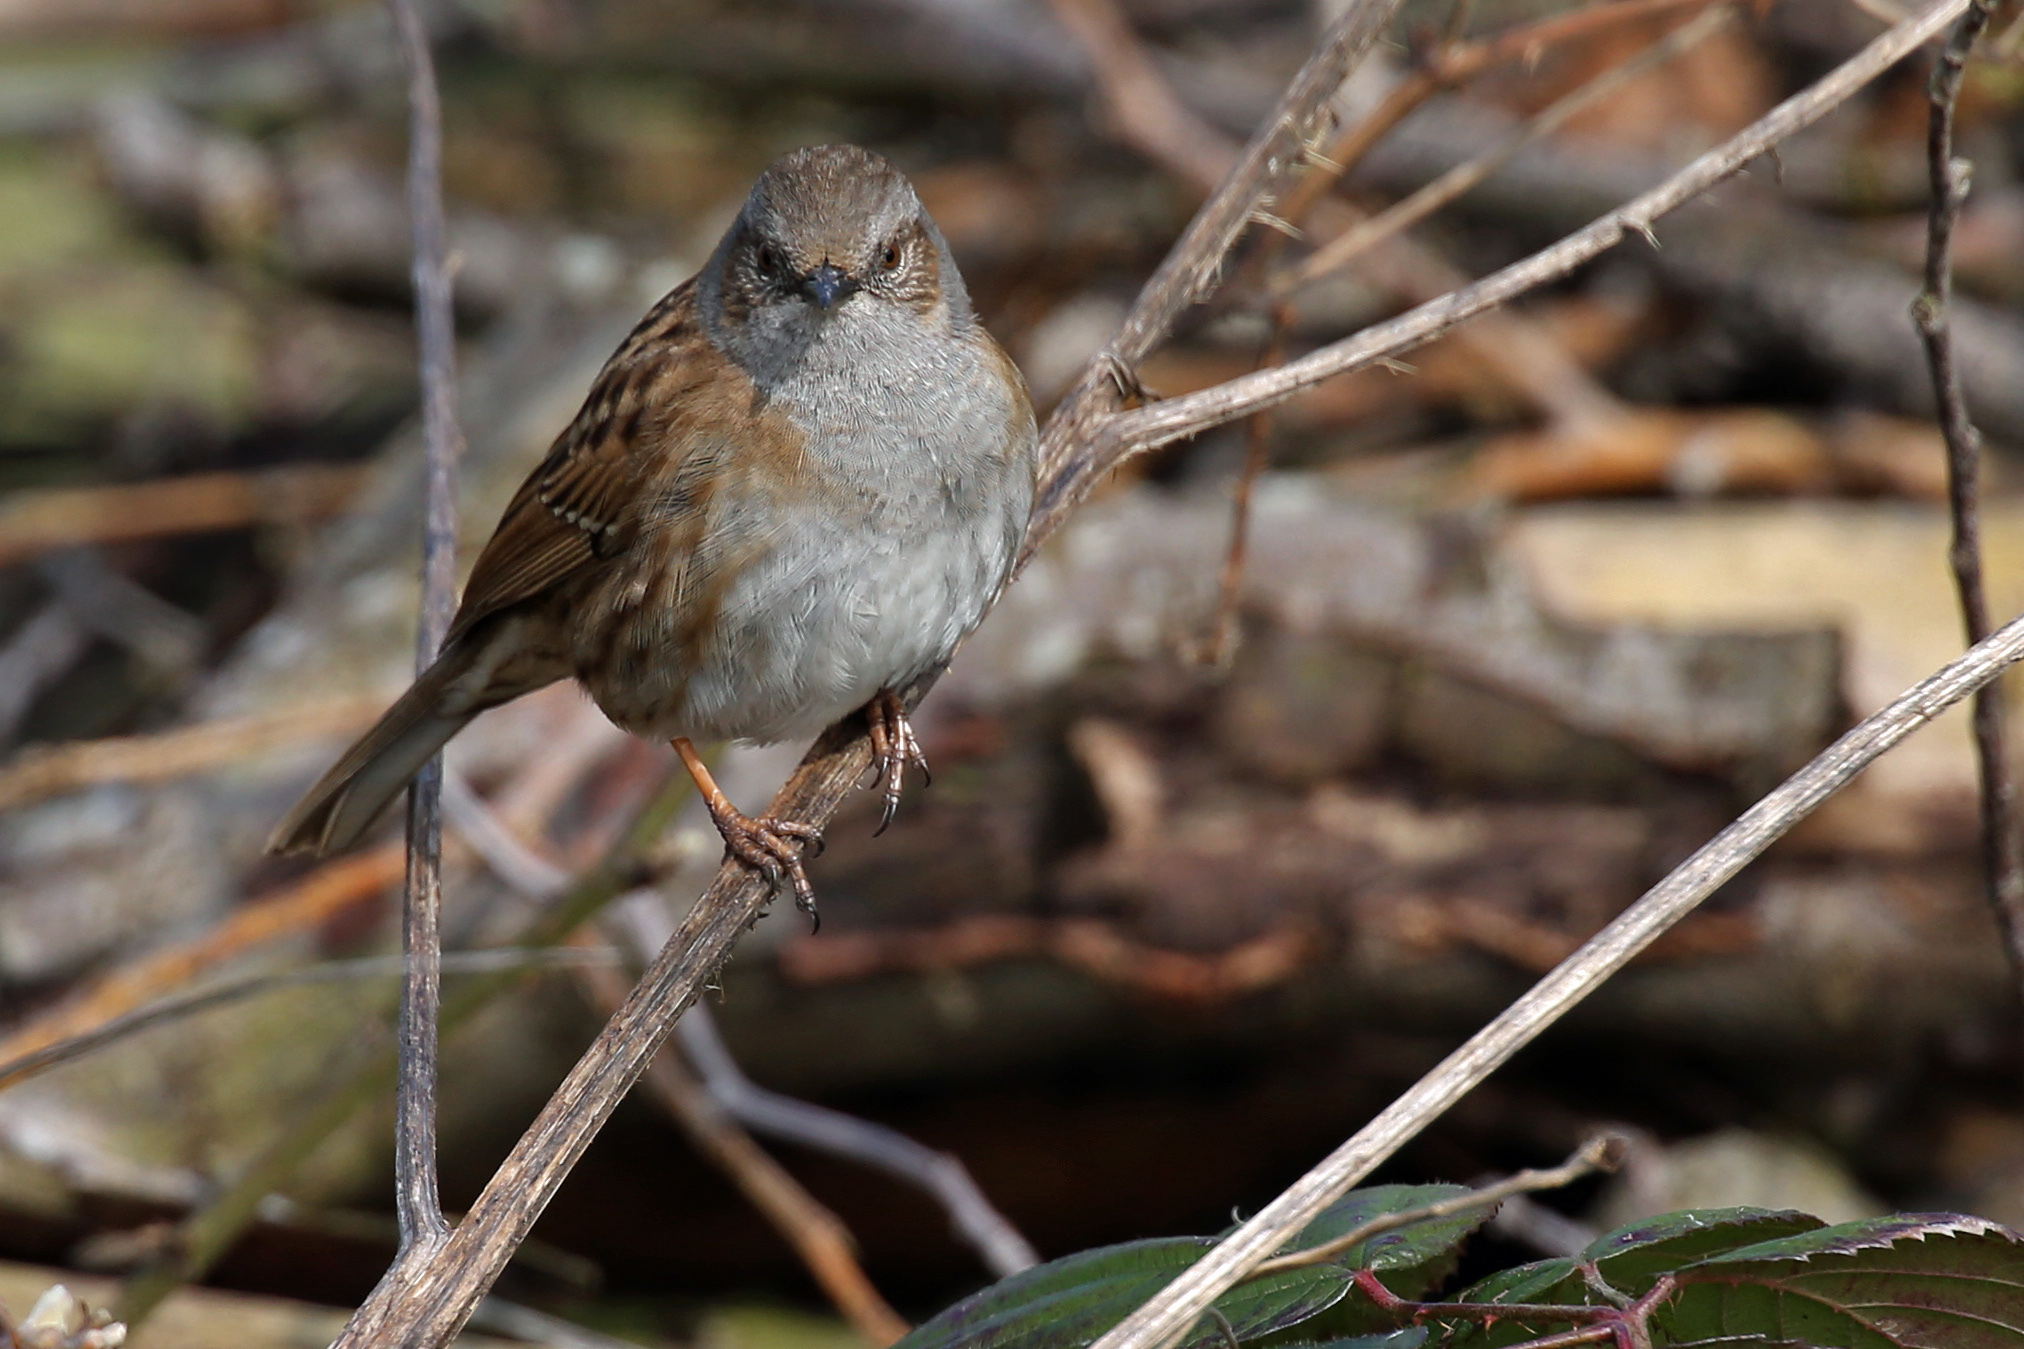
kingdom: Animalia
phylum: Chordata
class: Aves
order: Passeriformes
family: Prunellidae
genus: Prunella
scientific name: Prunella modularis
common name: Dunnock
